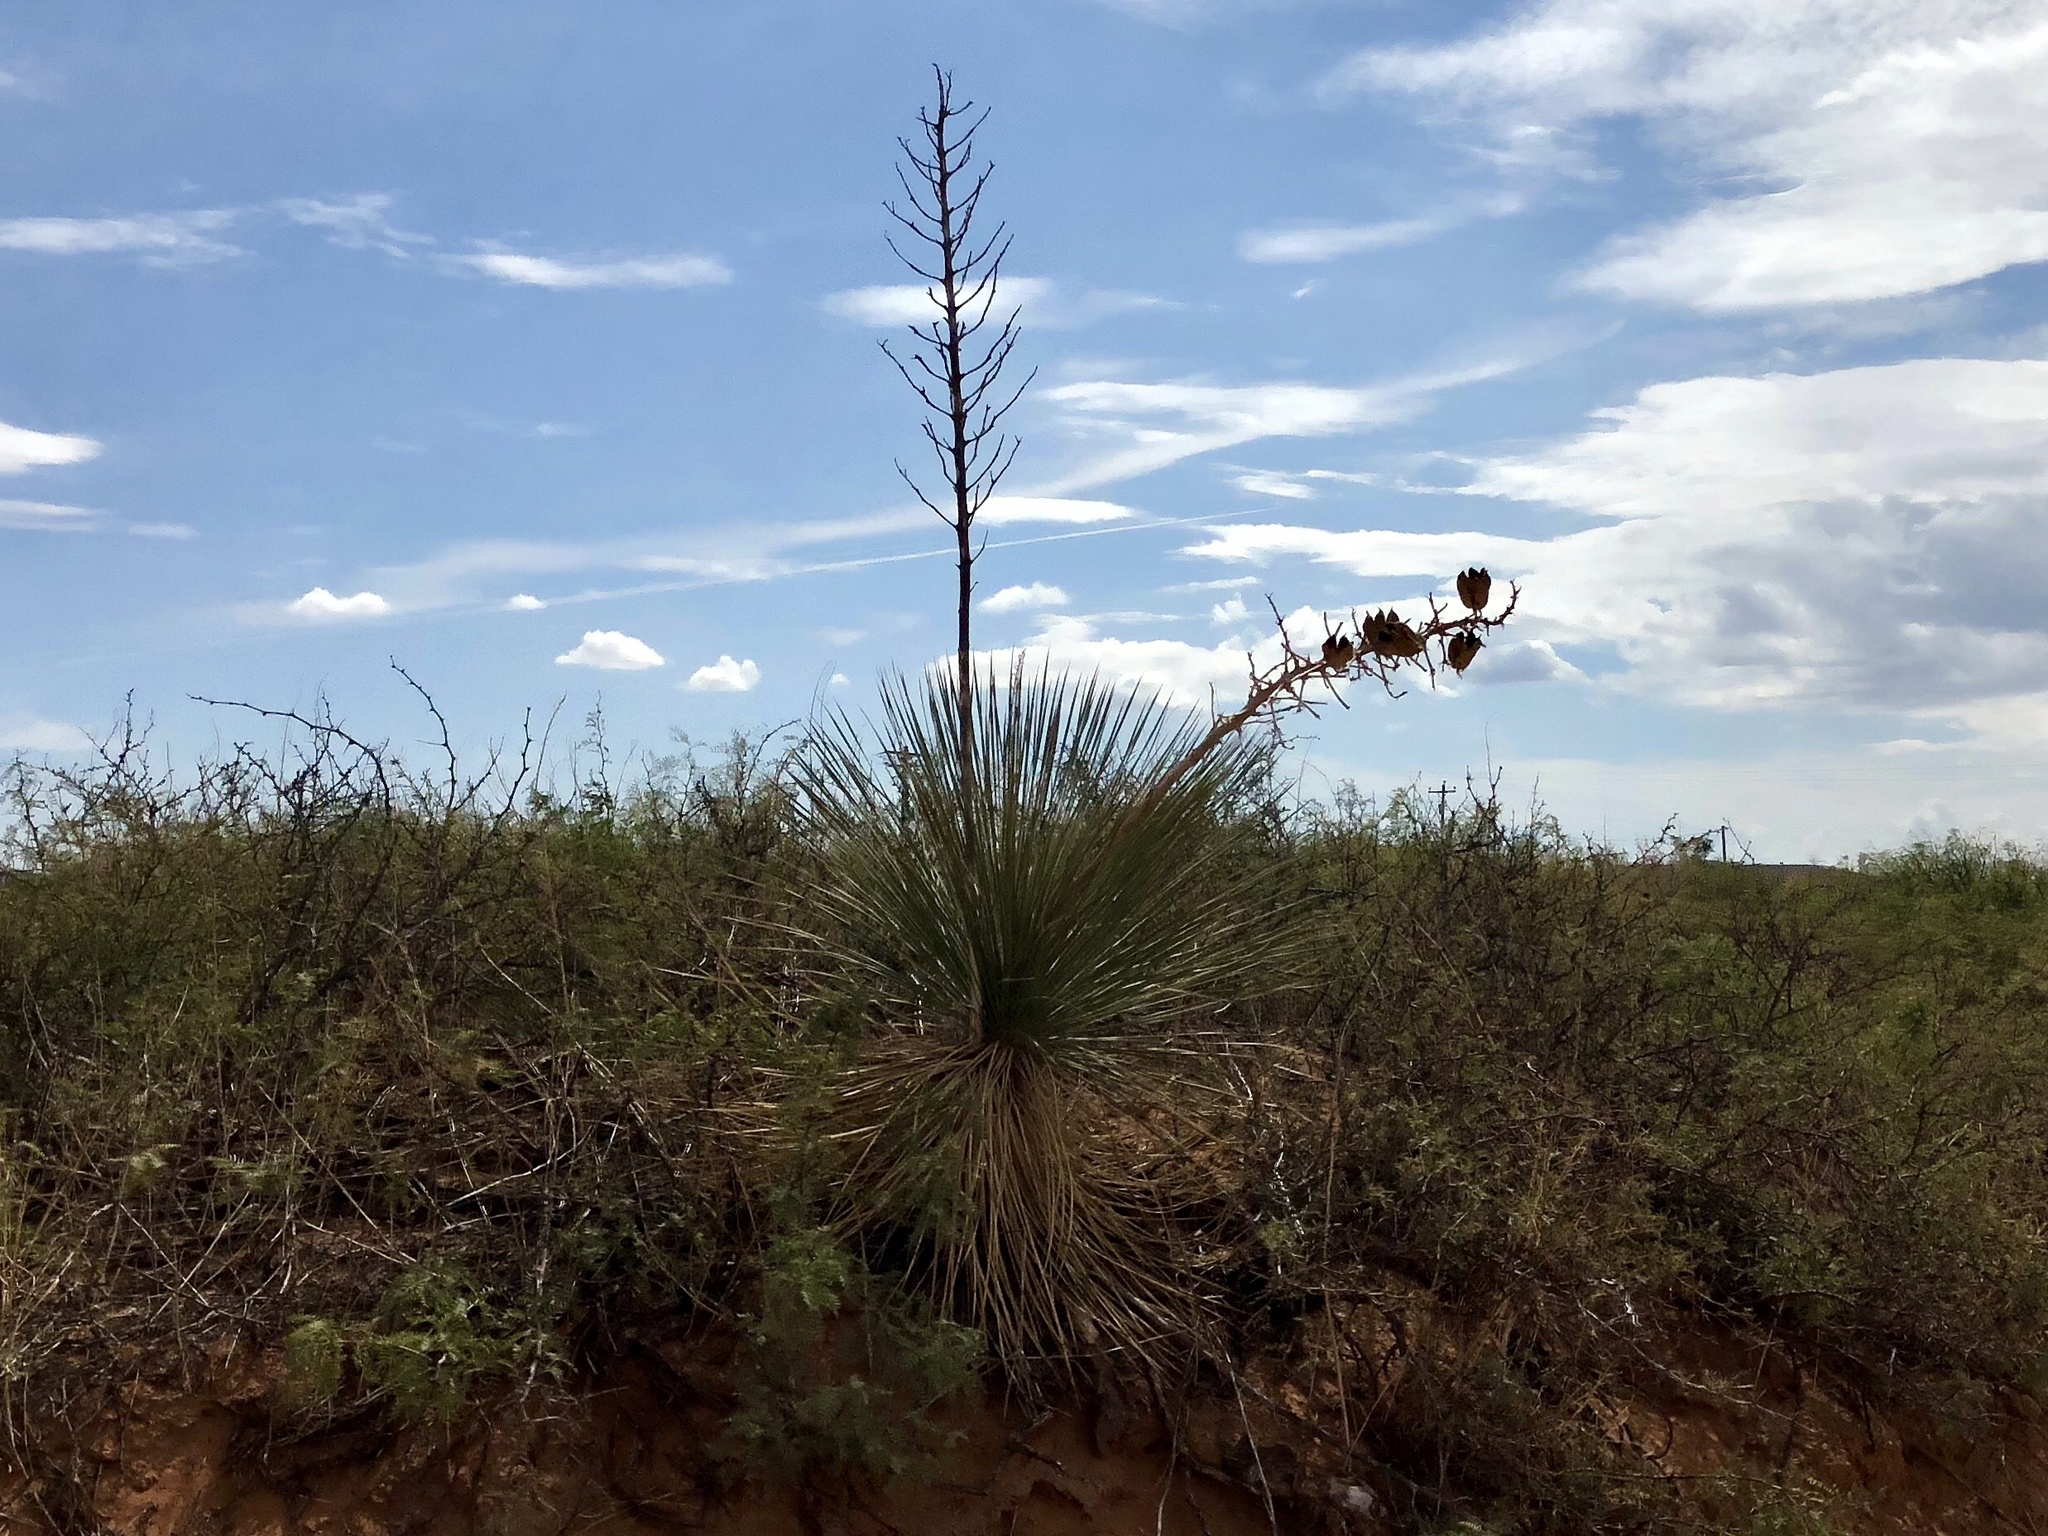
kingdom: Plantae
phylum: Tracheophyta
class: Liliopsida
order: Asparagales
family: Asparagaceae
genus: Yucca
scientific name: Yucca elata
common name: Palmella
